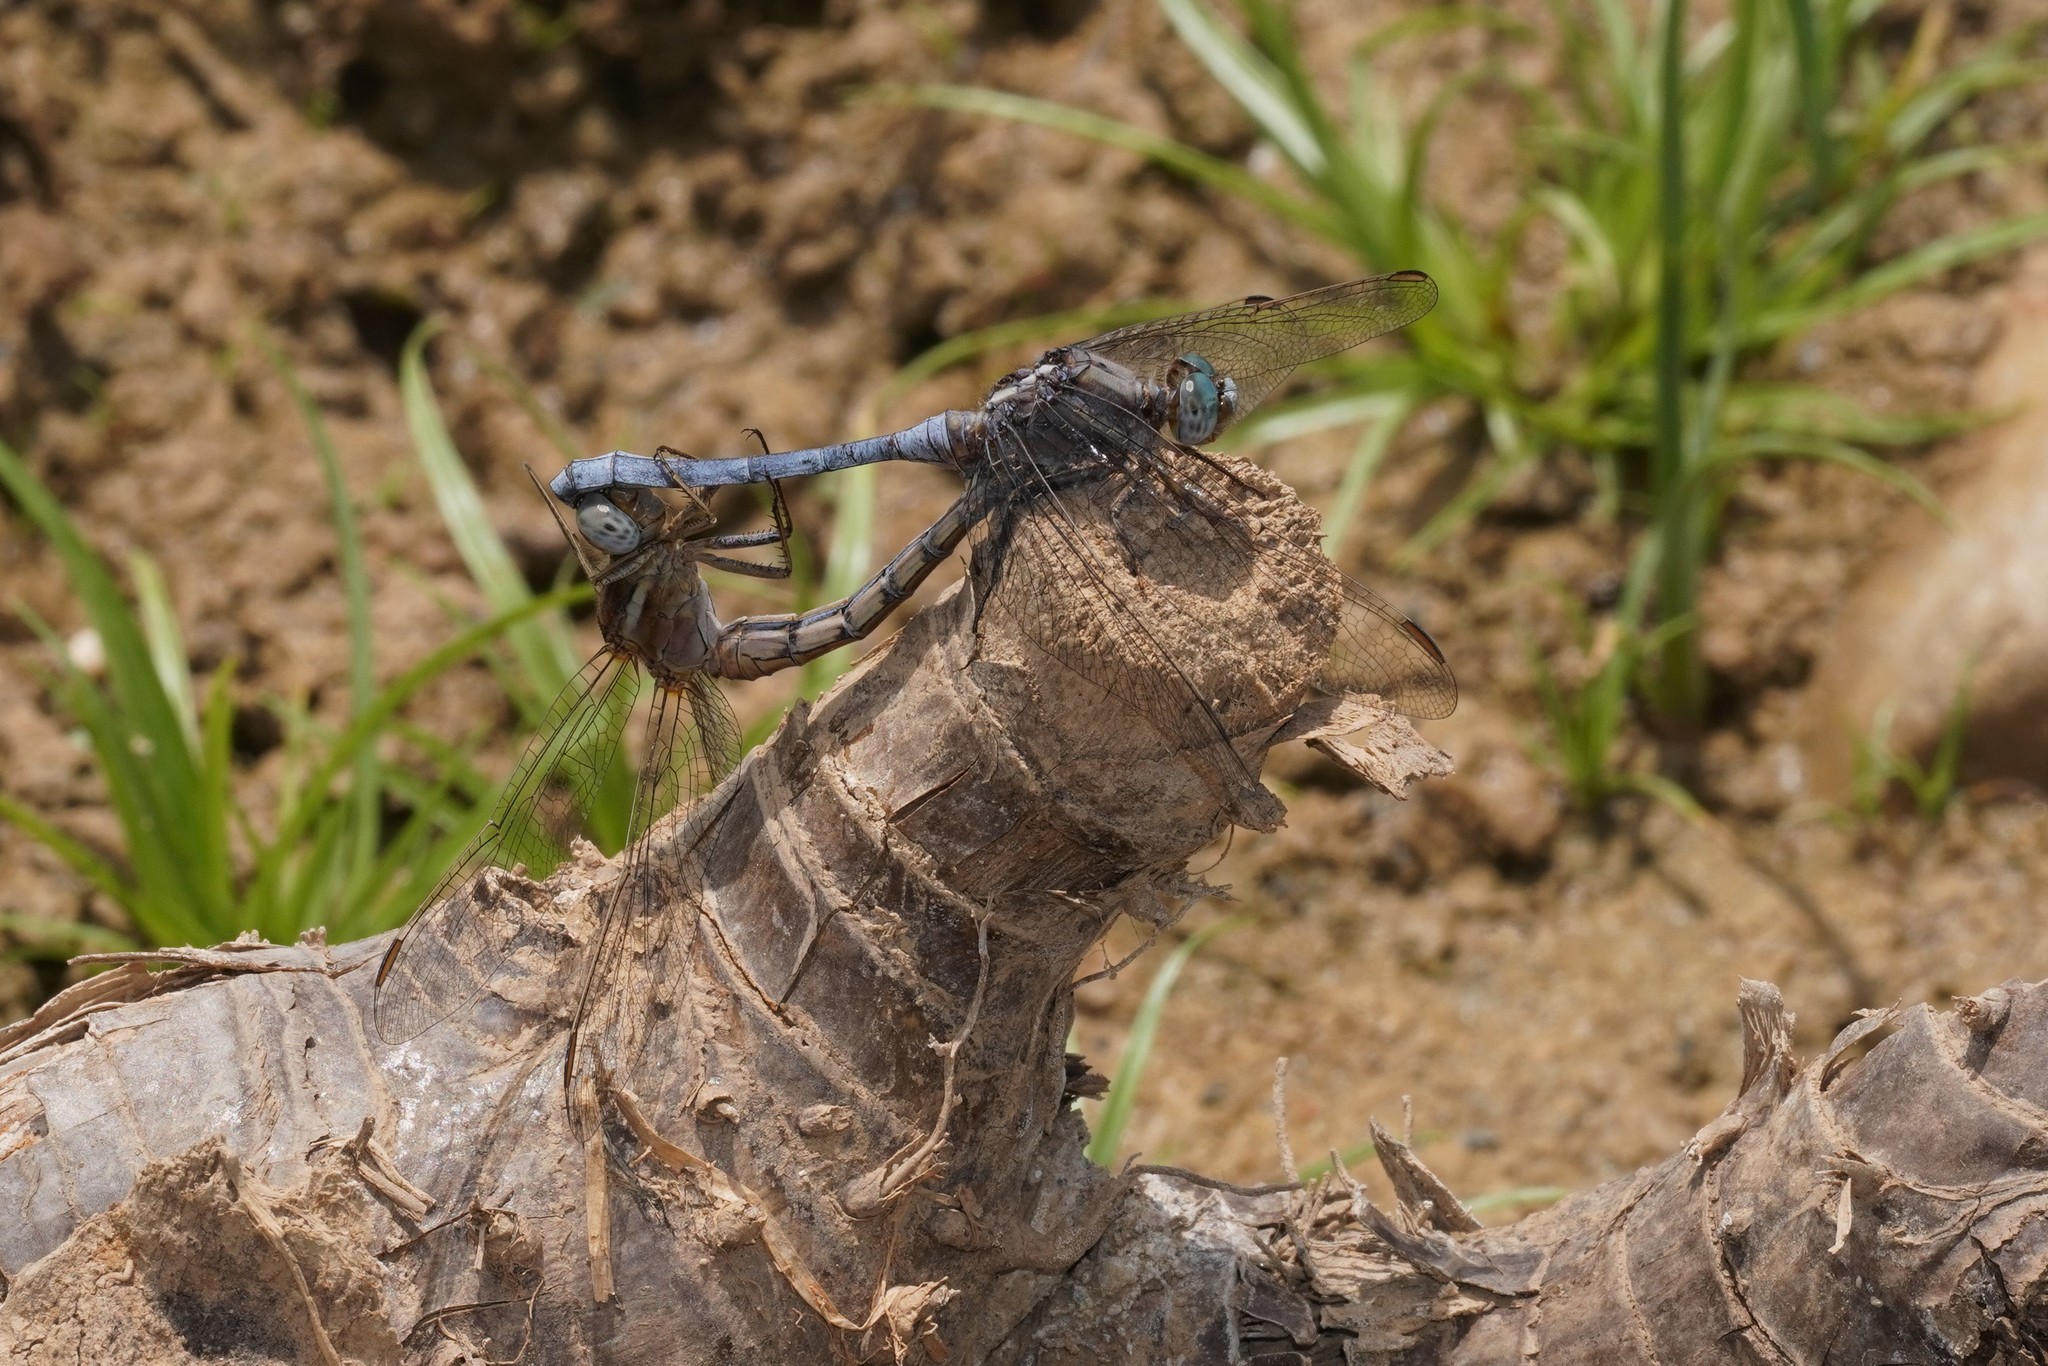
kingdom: Animalia
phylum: Arthropoda
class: Insecta
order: Odonata
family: Libellulidae
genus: Orthetrum
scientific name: Orthetrum chrysostigma
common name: Epaulet skimmer
